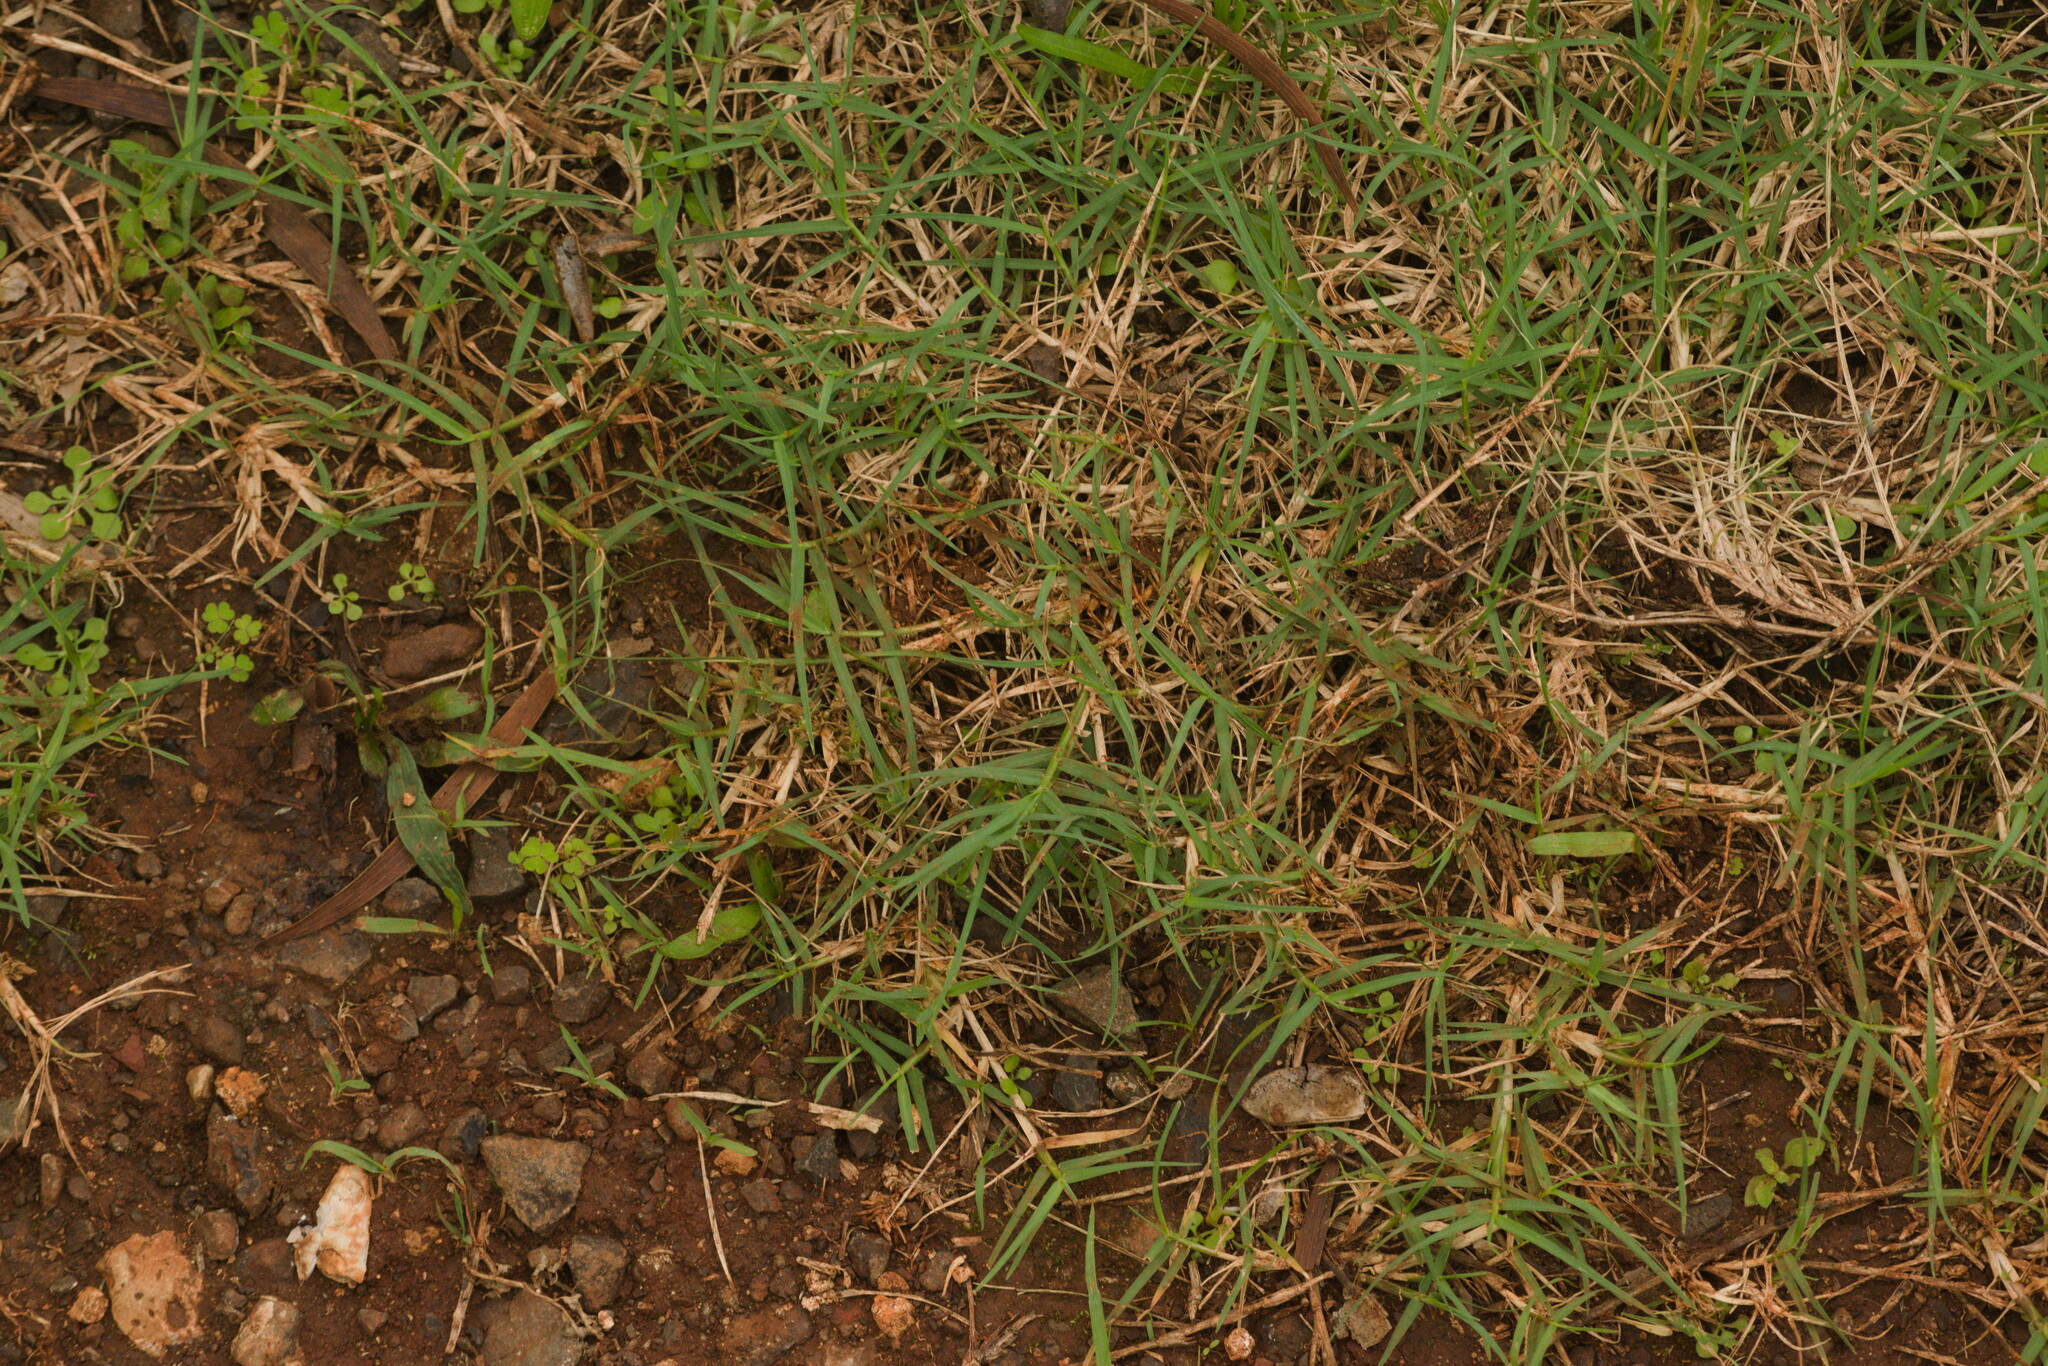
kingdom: Plantae
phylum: Tracheophyta
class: Liliopsida
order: Poales
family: Poaceae
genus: Cynodon
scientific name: Cynodon dactylon
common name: Bermuda grass
